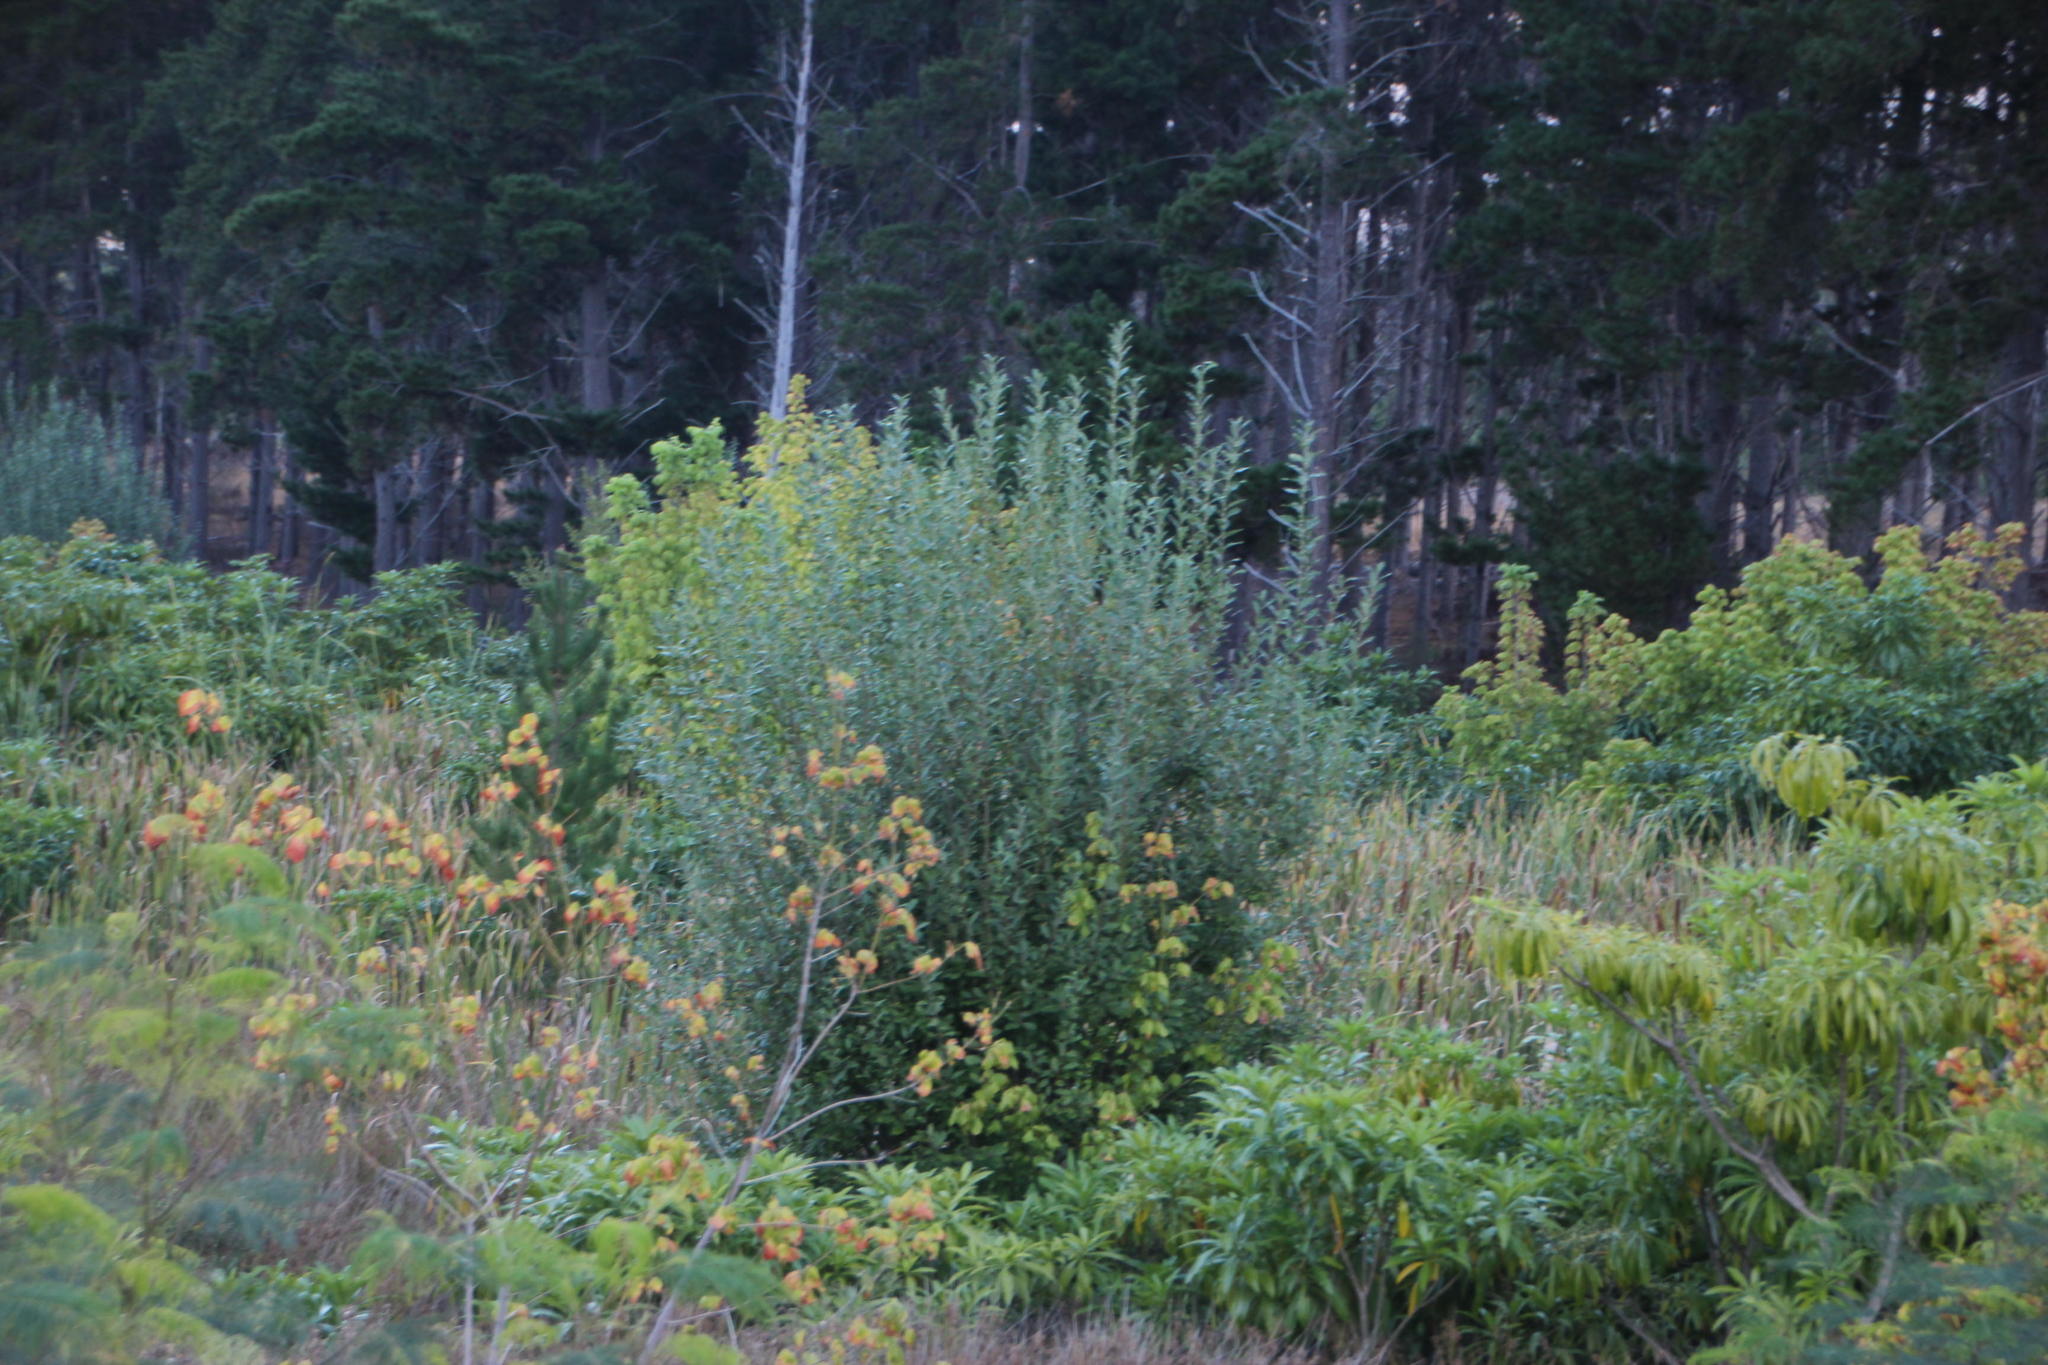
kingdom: Plantae
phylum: Tracheophyta
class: Magnoliopsida
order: Malpighiales
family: Salicaceae
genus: Salix
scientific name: Salix caprea
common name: Goat willow
